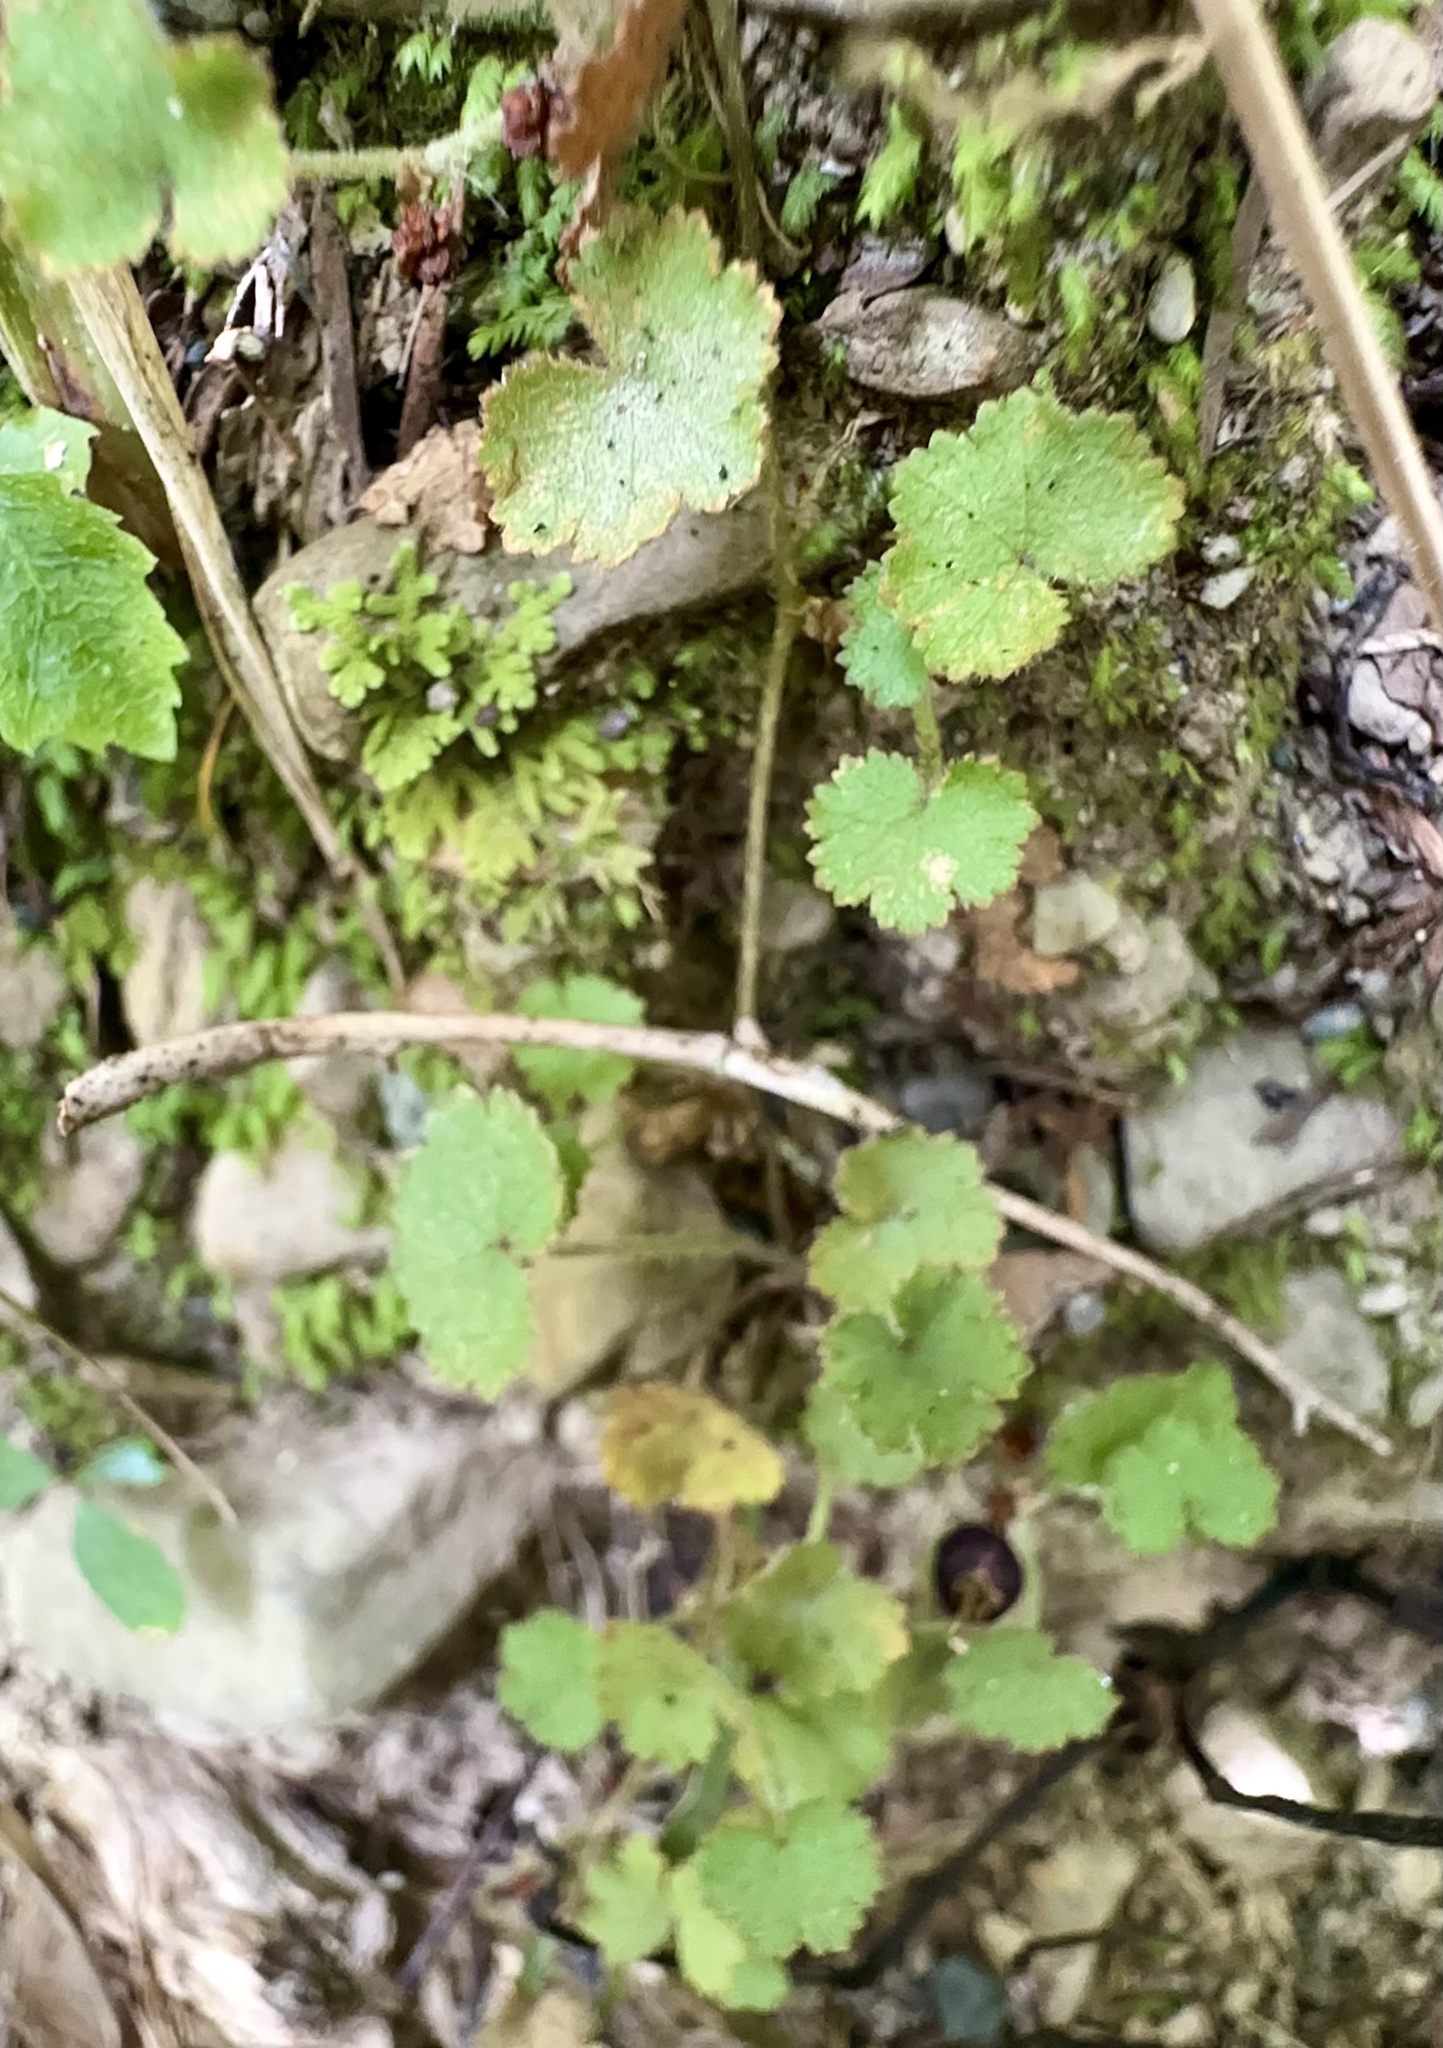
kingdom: Plantae
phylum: Tracheophyta
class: Magnoliopsida
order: Apiales
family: Araliaceae
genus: Hydrocotyle
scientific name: Hydrocotyle moschata
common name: Hairy pennywort
